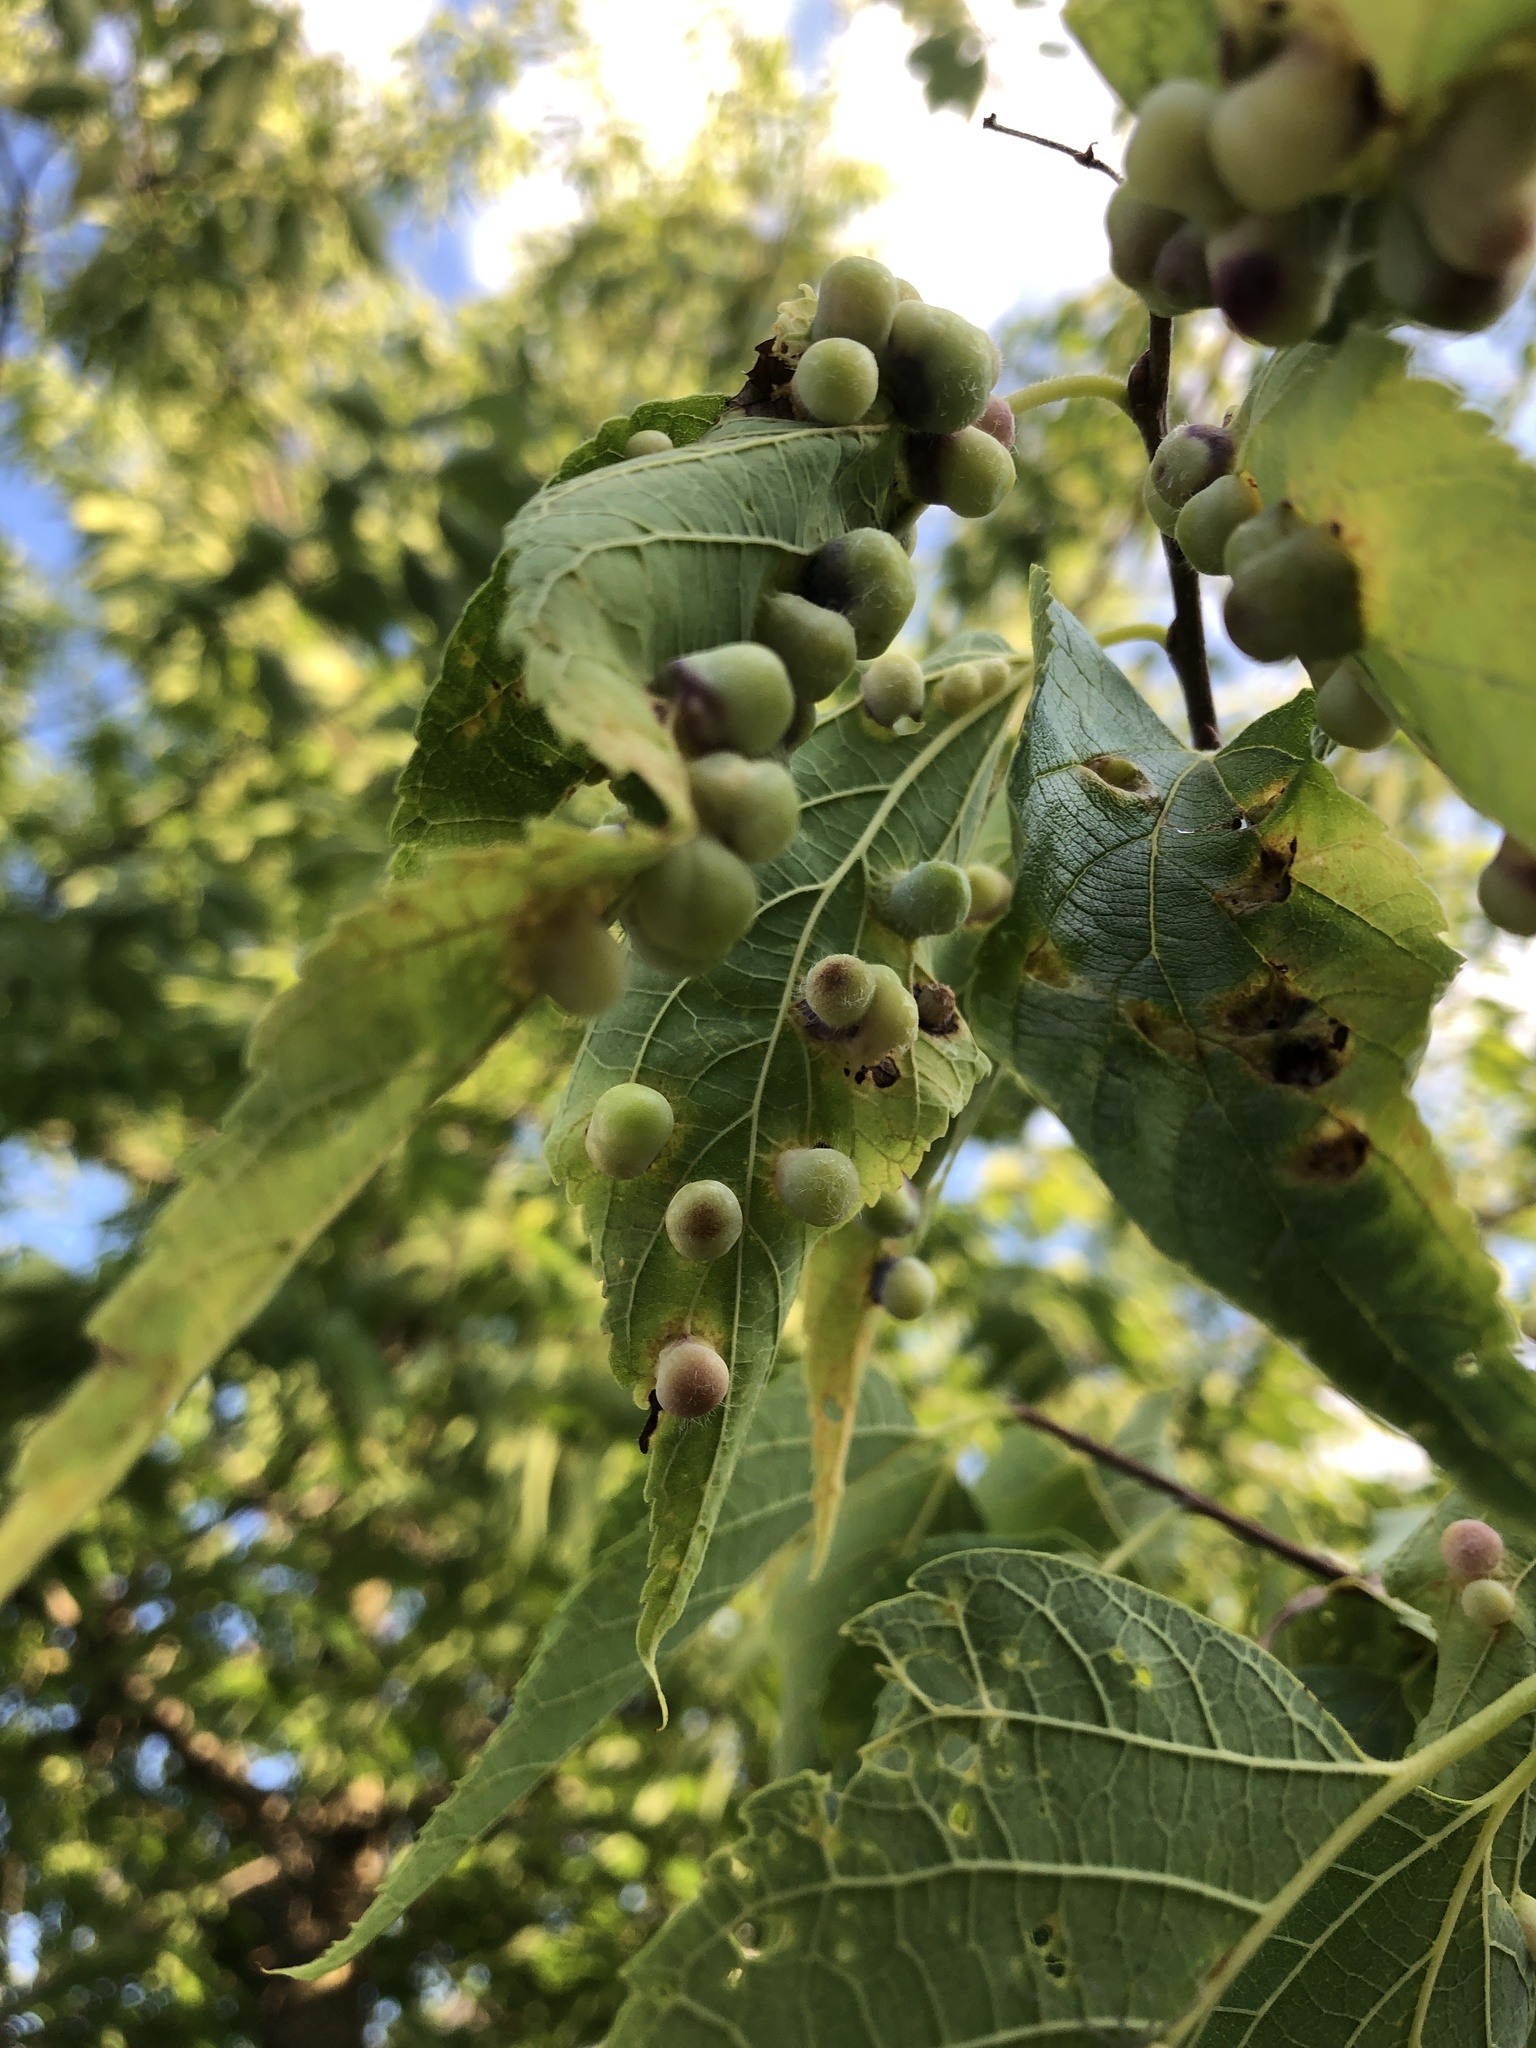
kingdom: Animalia
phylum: Arthropoda
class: Insecta
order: Hemiptera
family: Aphalaridae
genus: Pachypsylla
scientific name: Pachypsylla celtidismamma
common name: Hackberry nipplegall psyllid
